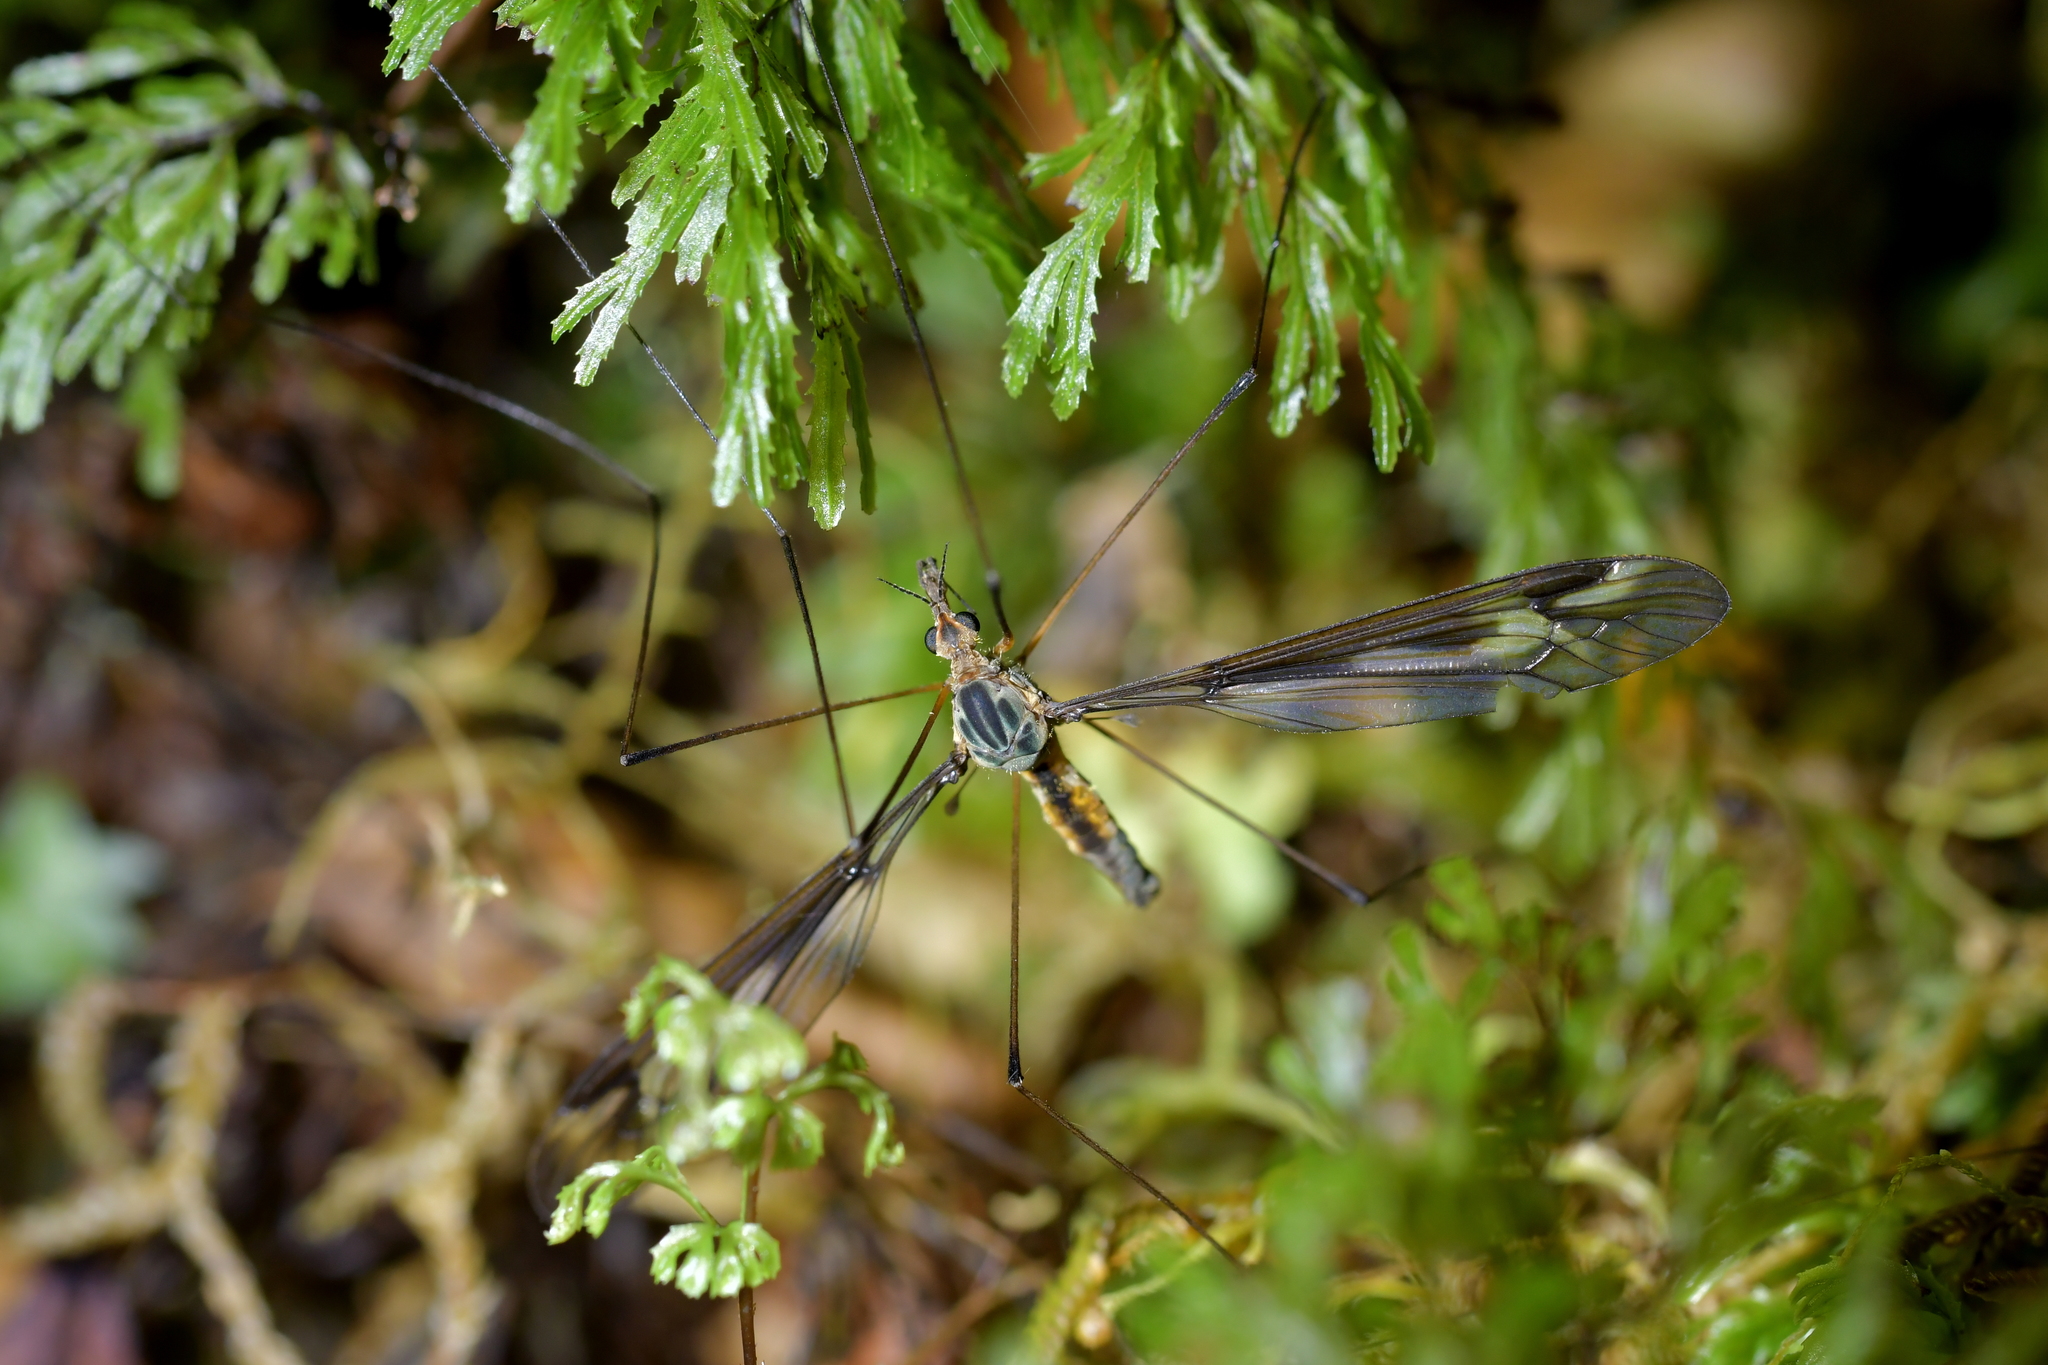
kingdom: Animalia
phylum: Arthropoda
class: Insecta
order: Diptera
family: Tipulidae
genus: Leptotarsus
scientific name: Leptotarsus vittatus
